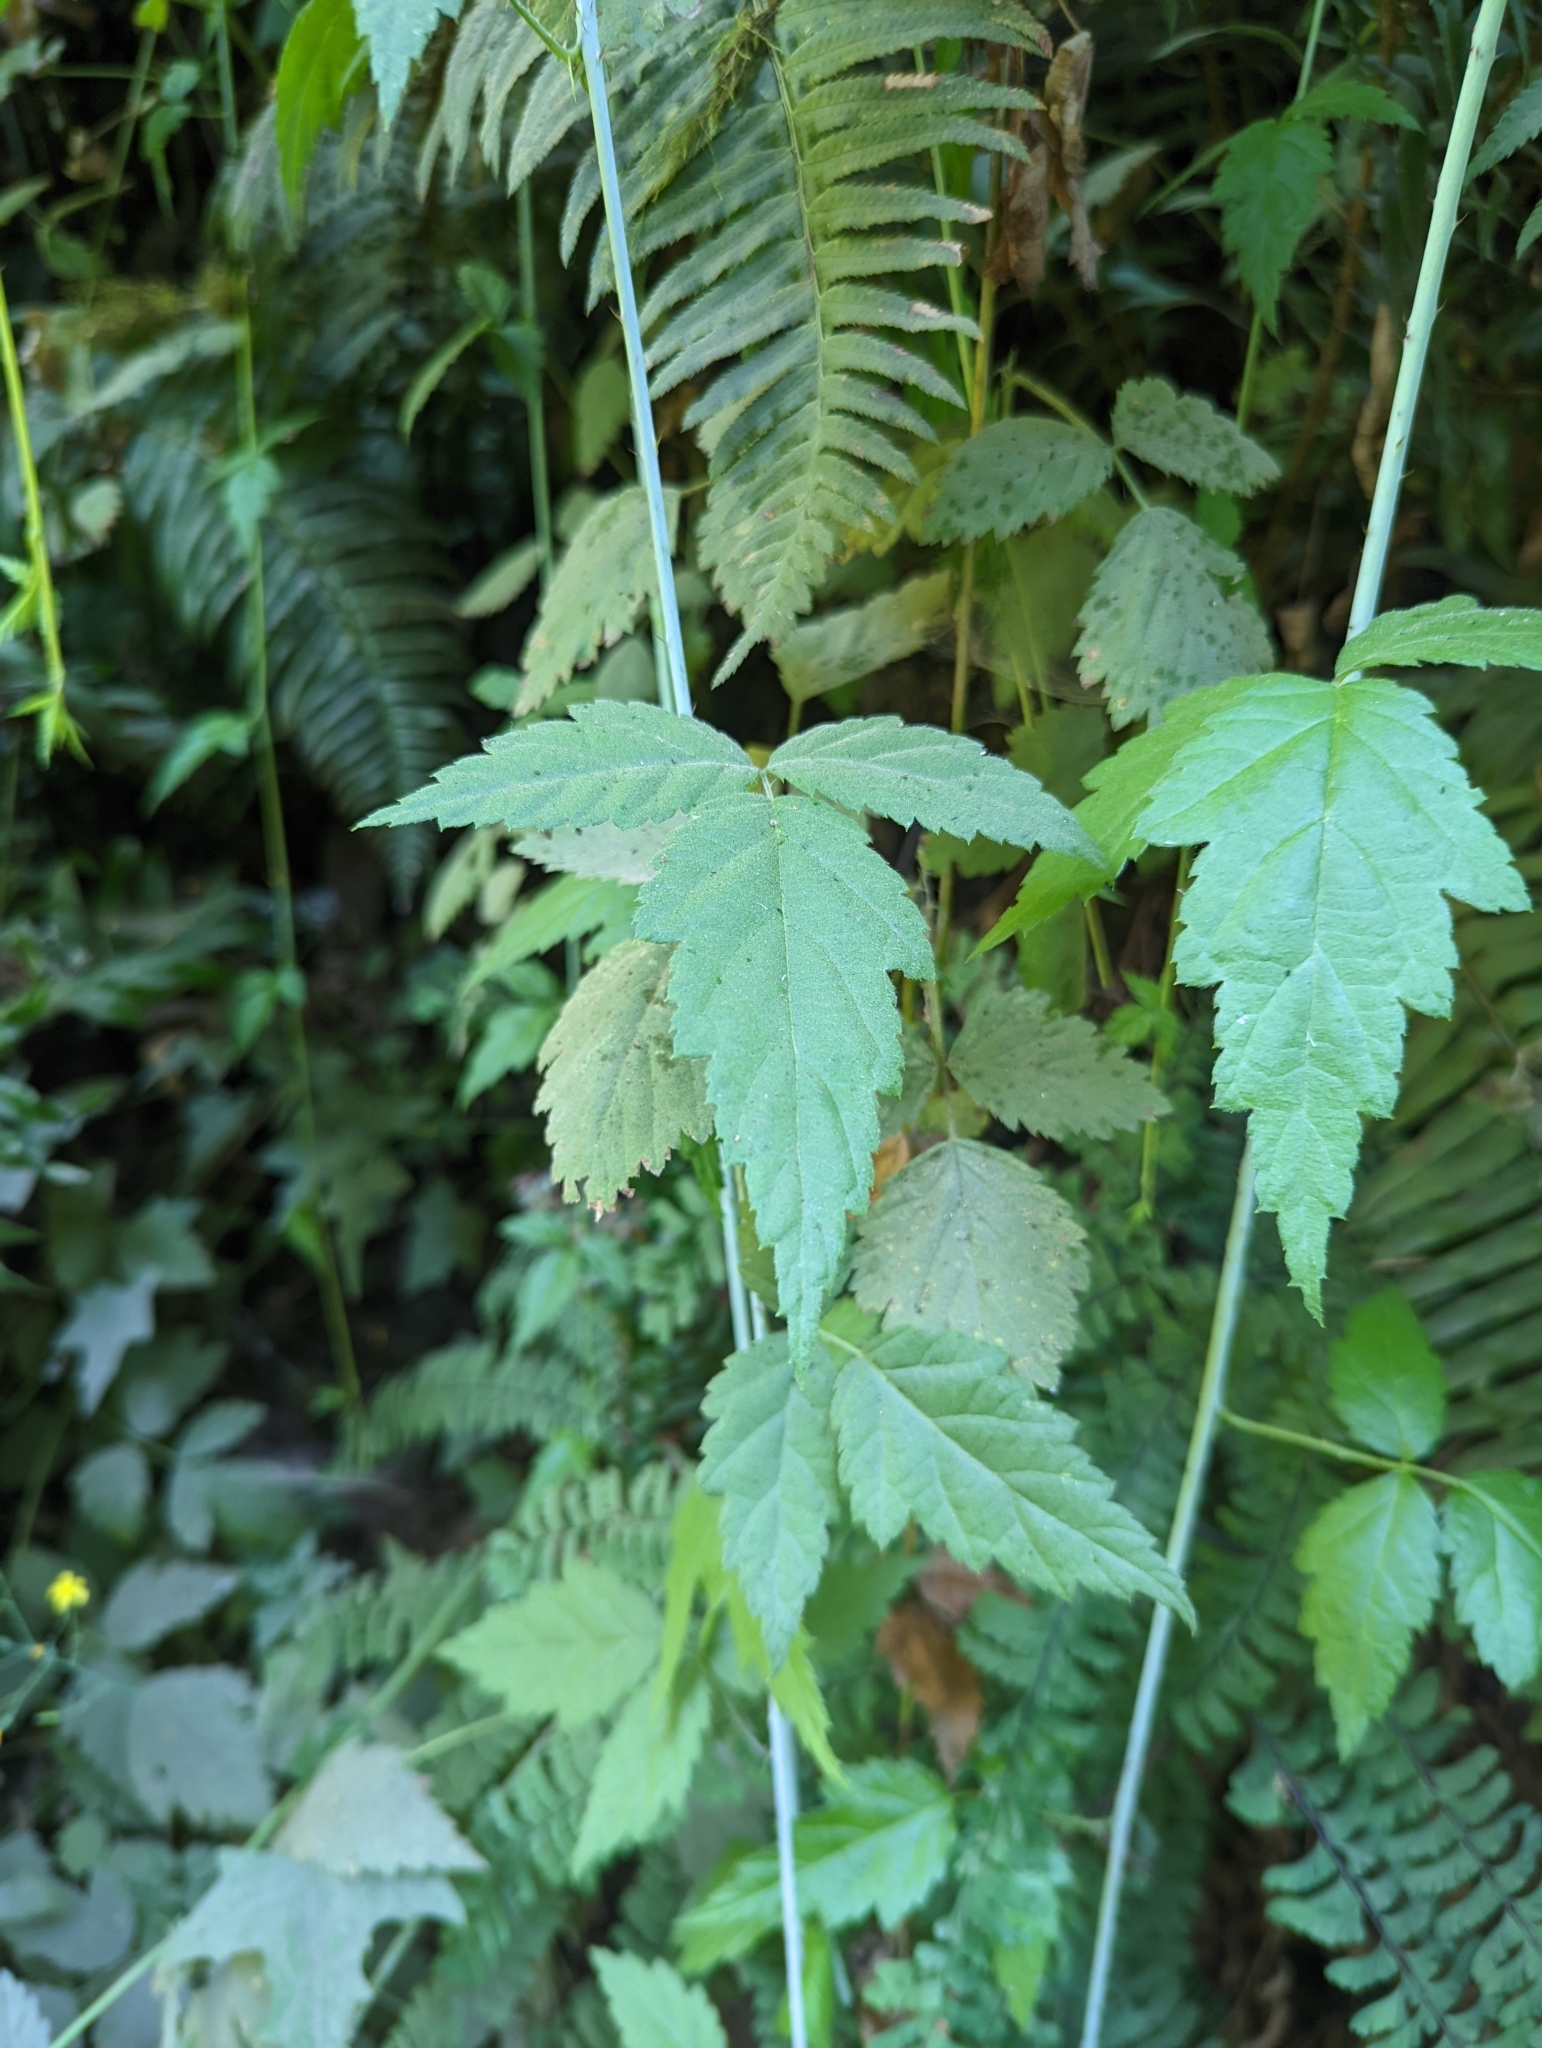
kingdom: Plantae
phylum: Tracheophyta
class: Magnoliopsida
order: Rosales
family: Rosaceae
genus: Rubus
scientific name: Rubus ursinus
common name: Pacific blackberry
